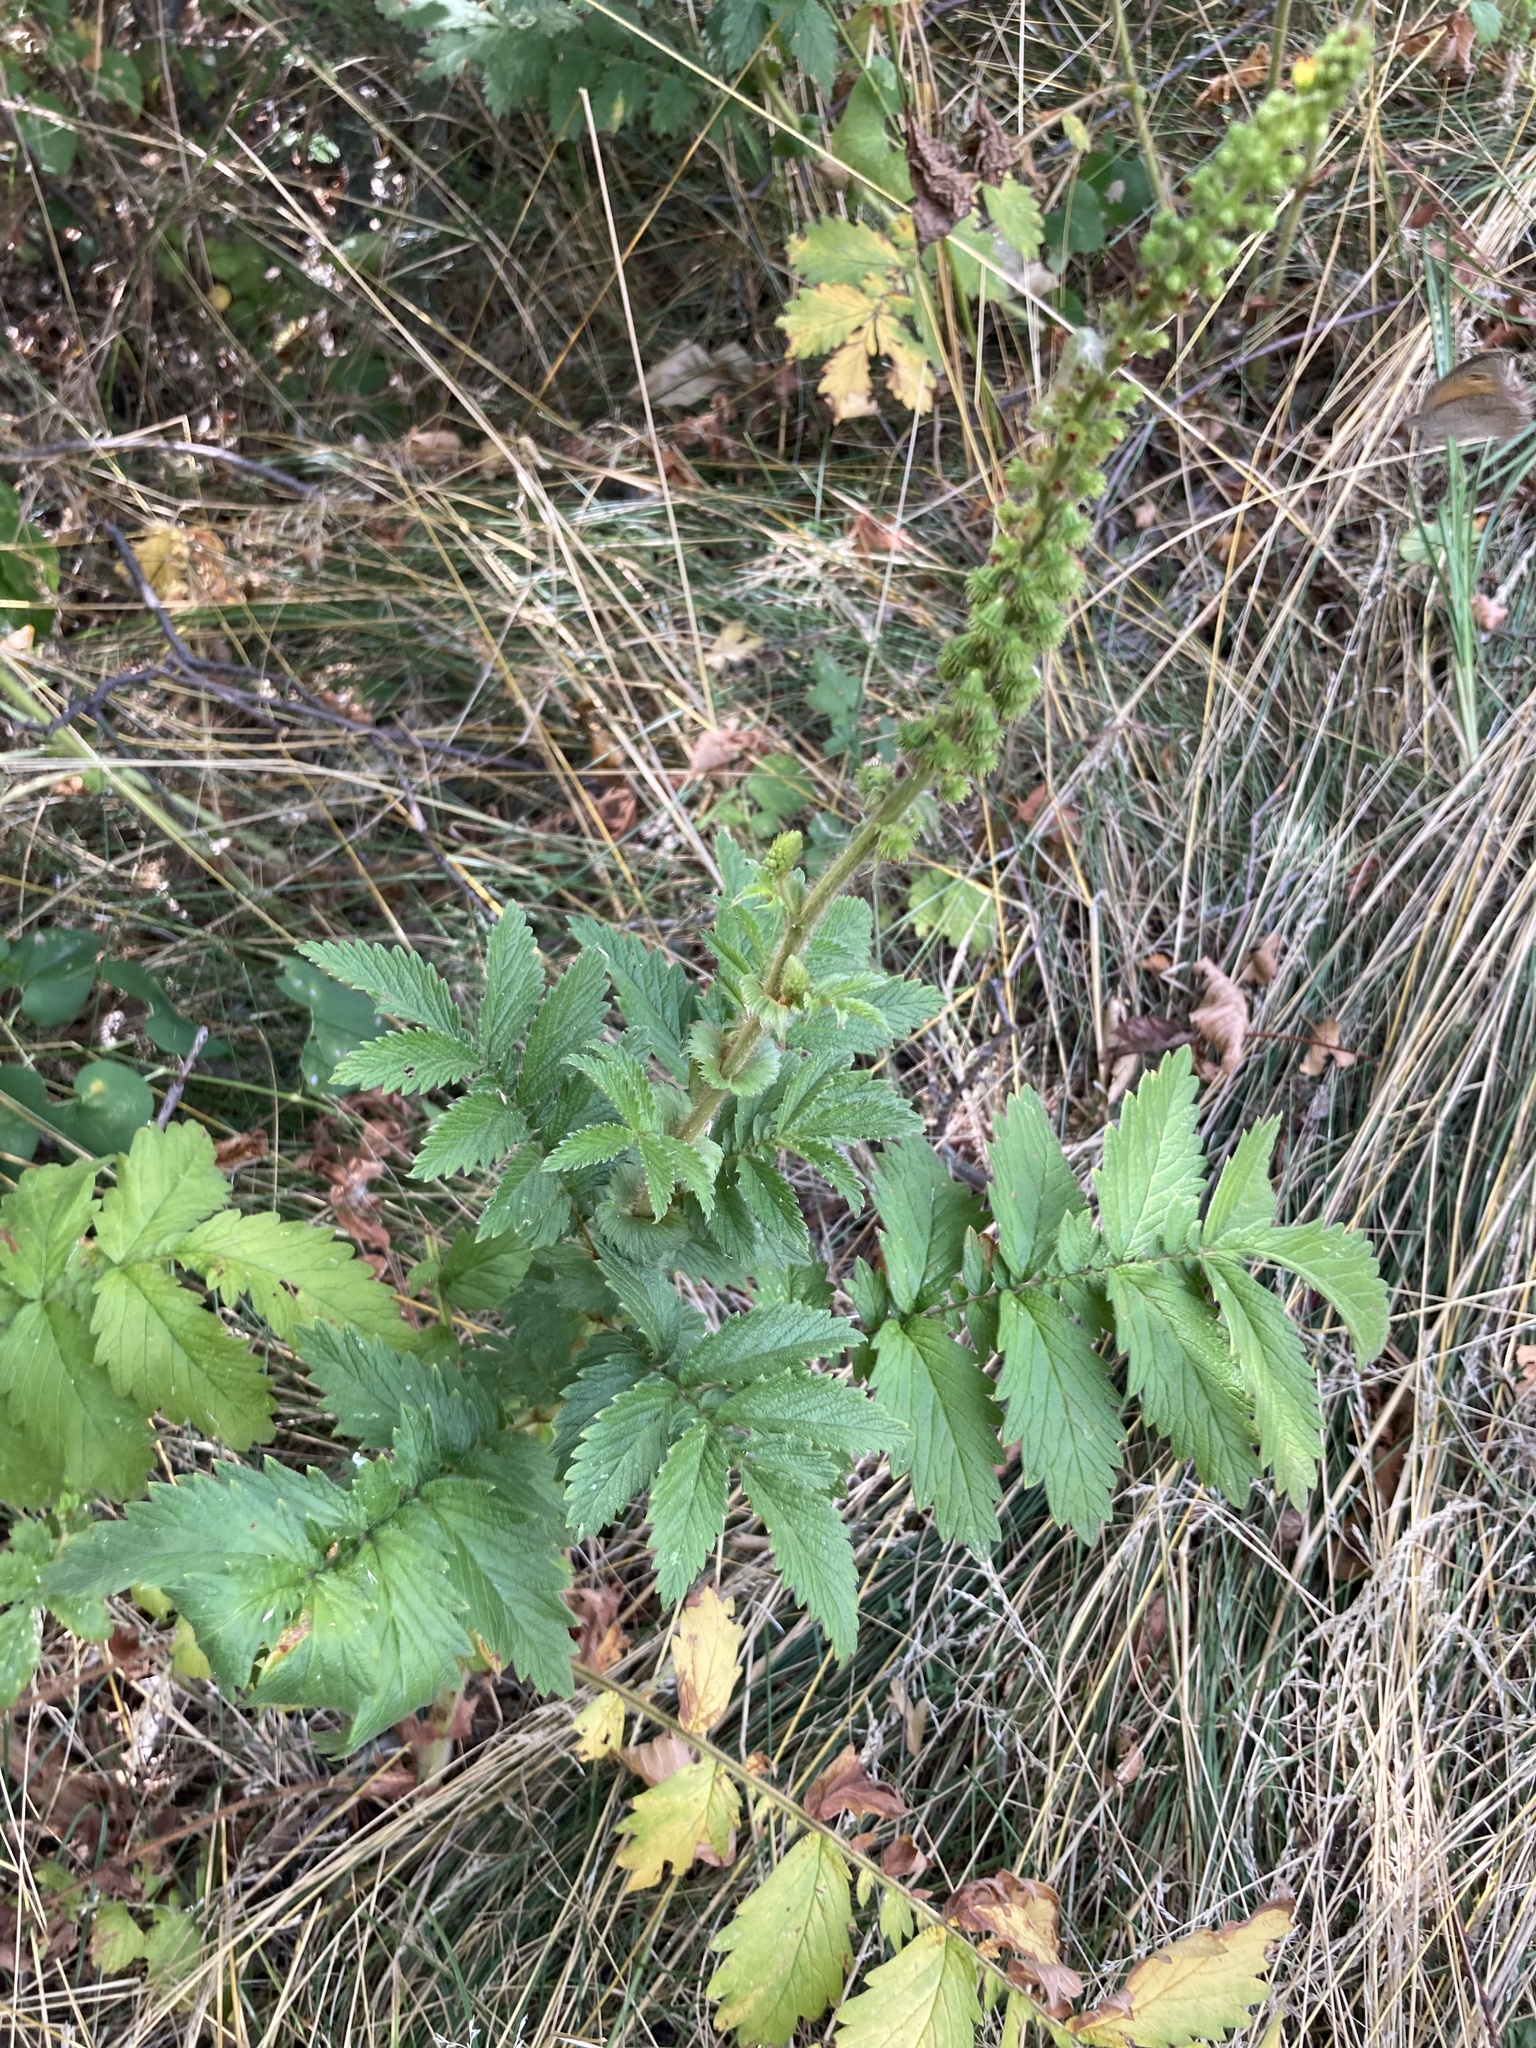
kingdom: Plantae
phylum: Tracheophyta
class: Magnoliopsida
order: Rosales
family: Rosaceae
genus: Agrimonia
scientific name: Agrimonia eupatoria
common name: Agrimony
